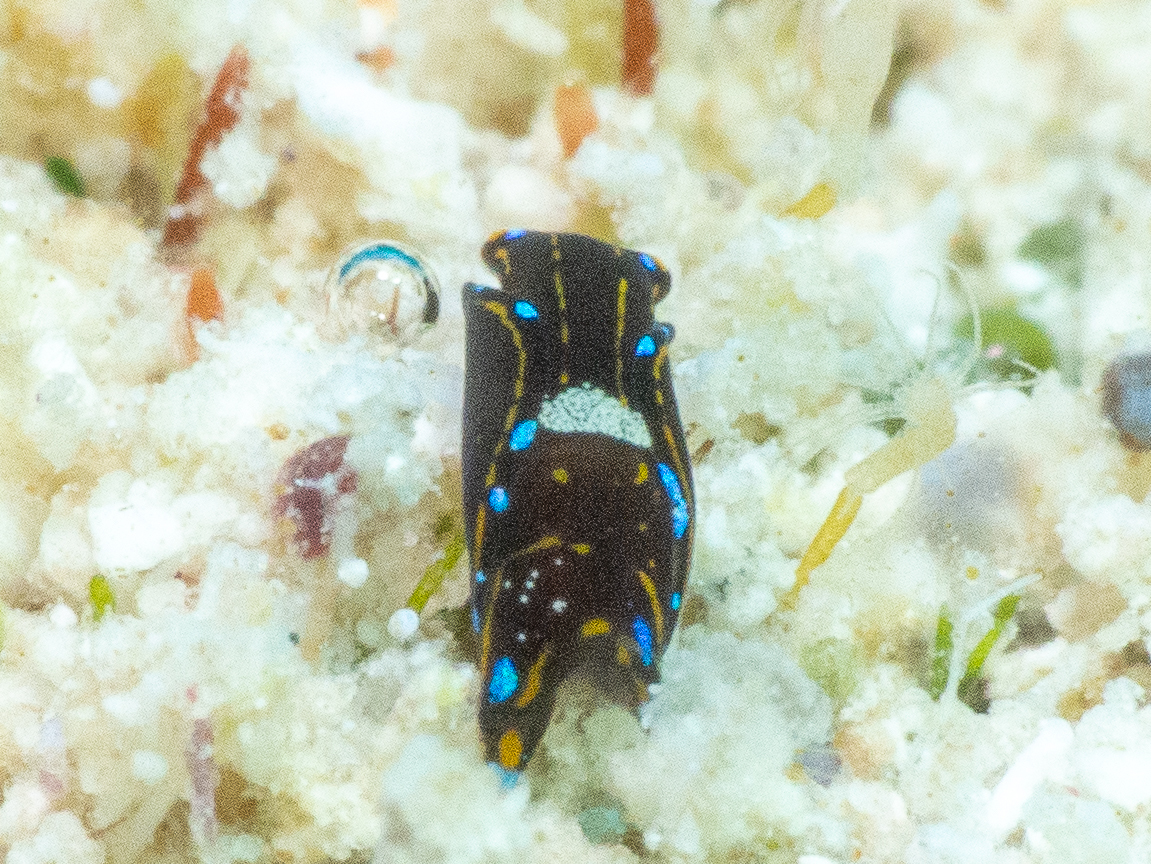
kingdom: Animalia
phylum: Mollusca
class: Gastropoda
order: Cephalaspidea
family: Aglajidae
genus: Chelidonura
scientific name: Chelidonura cubana
